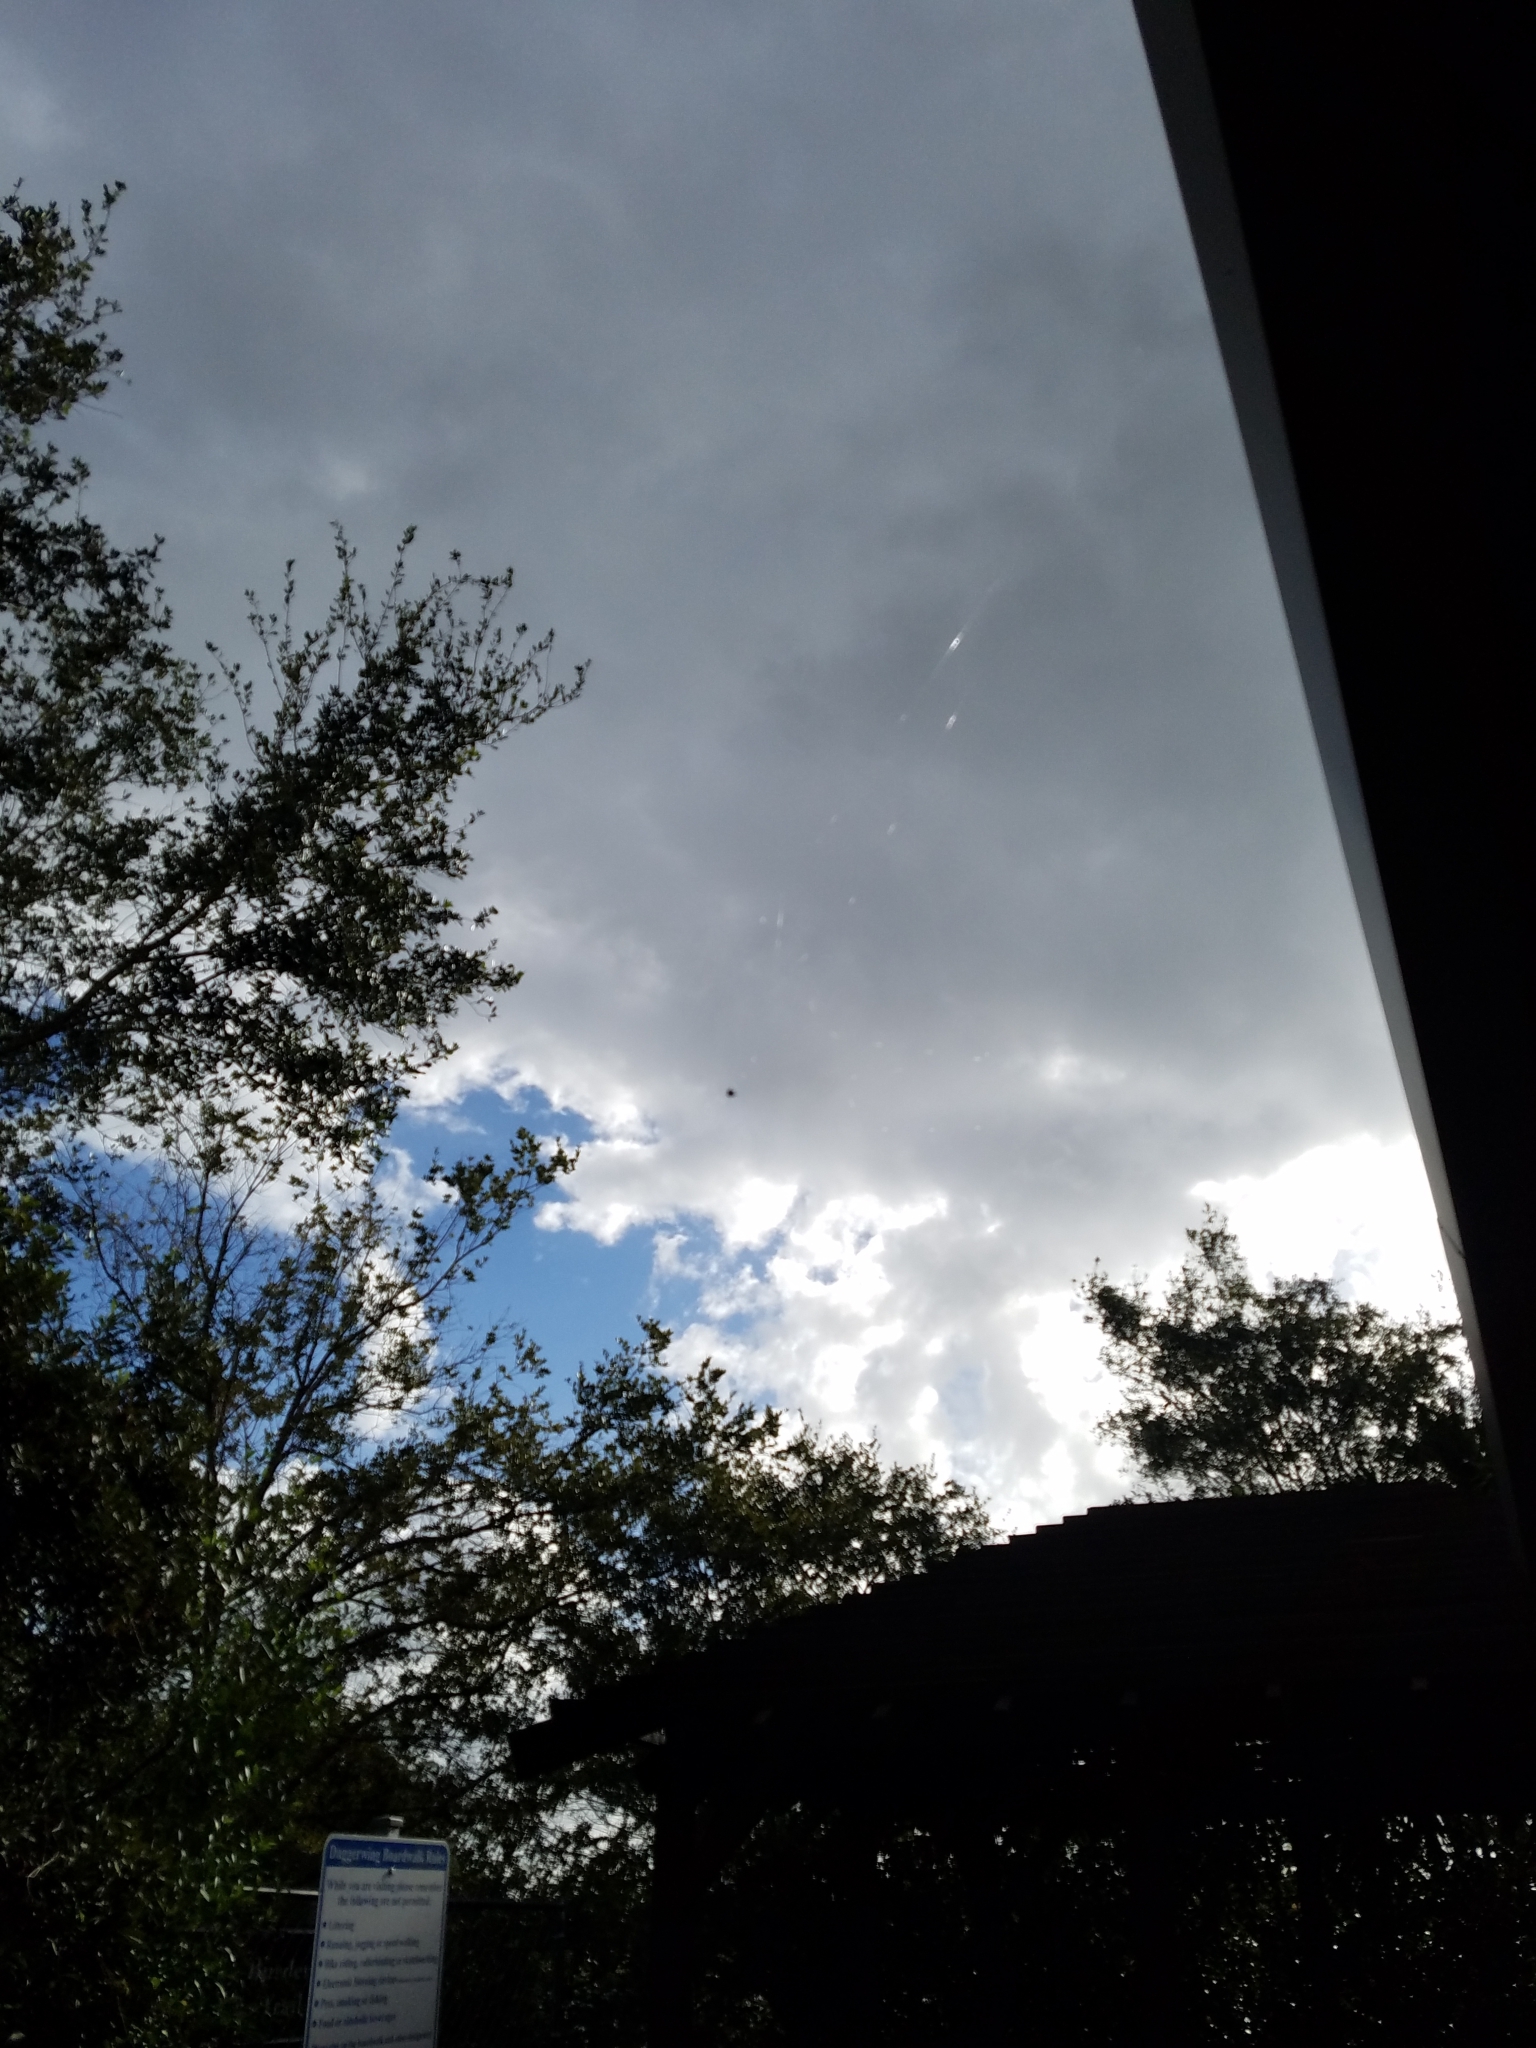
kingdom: Animalia
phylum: Arthropoda
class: Arachnida
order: Araneae
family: Araneidae
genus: Gasteracantha
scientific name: Gasteracantha cancriformis
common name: Orb weavers
